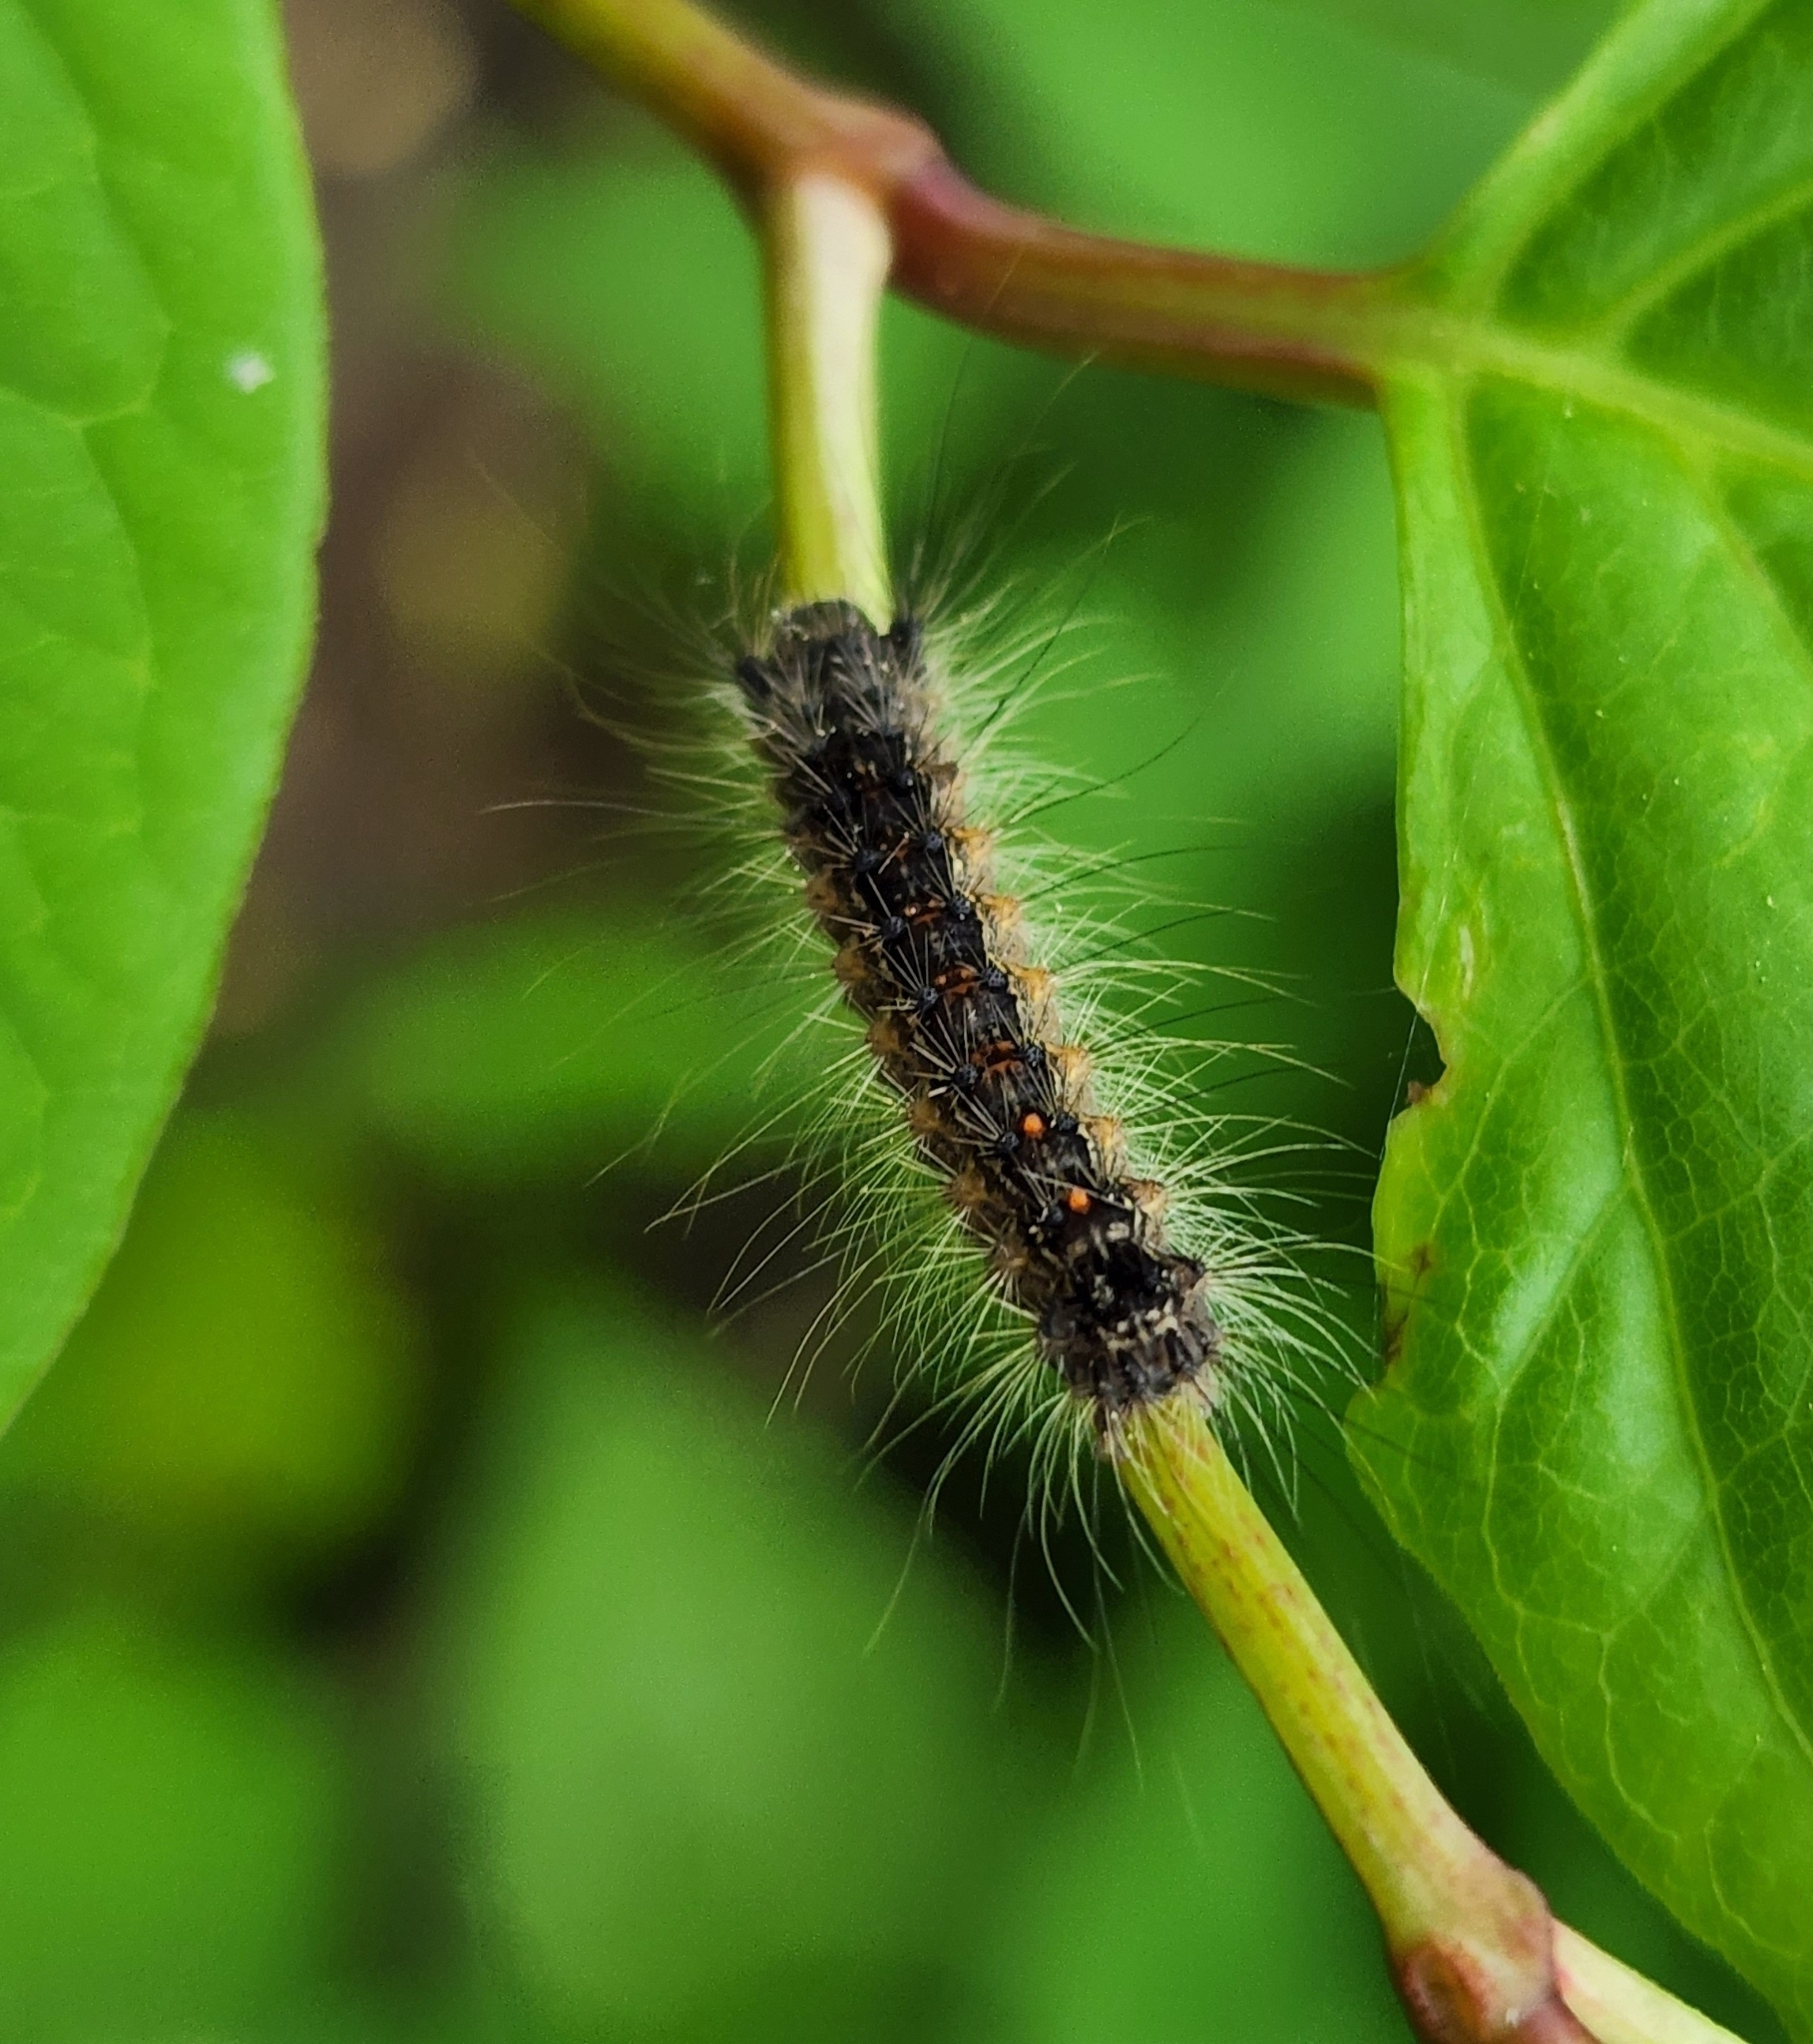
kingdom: Animalia
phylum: Arthropoda
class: Insecta
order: Lepidoptera
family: Erebidae
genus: Lymantria
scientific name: Lymantria dispar
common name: Gypsy moth
